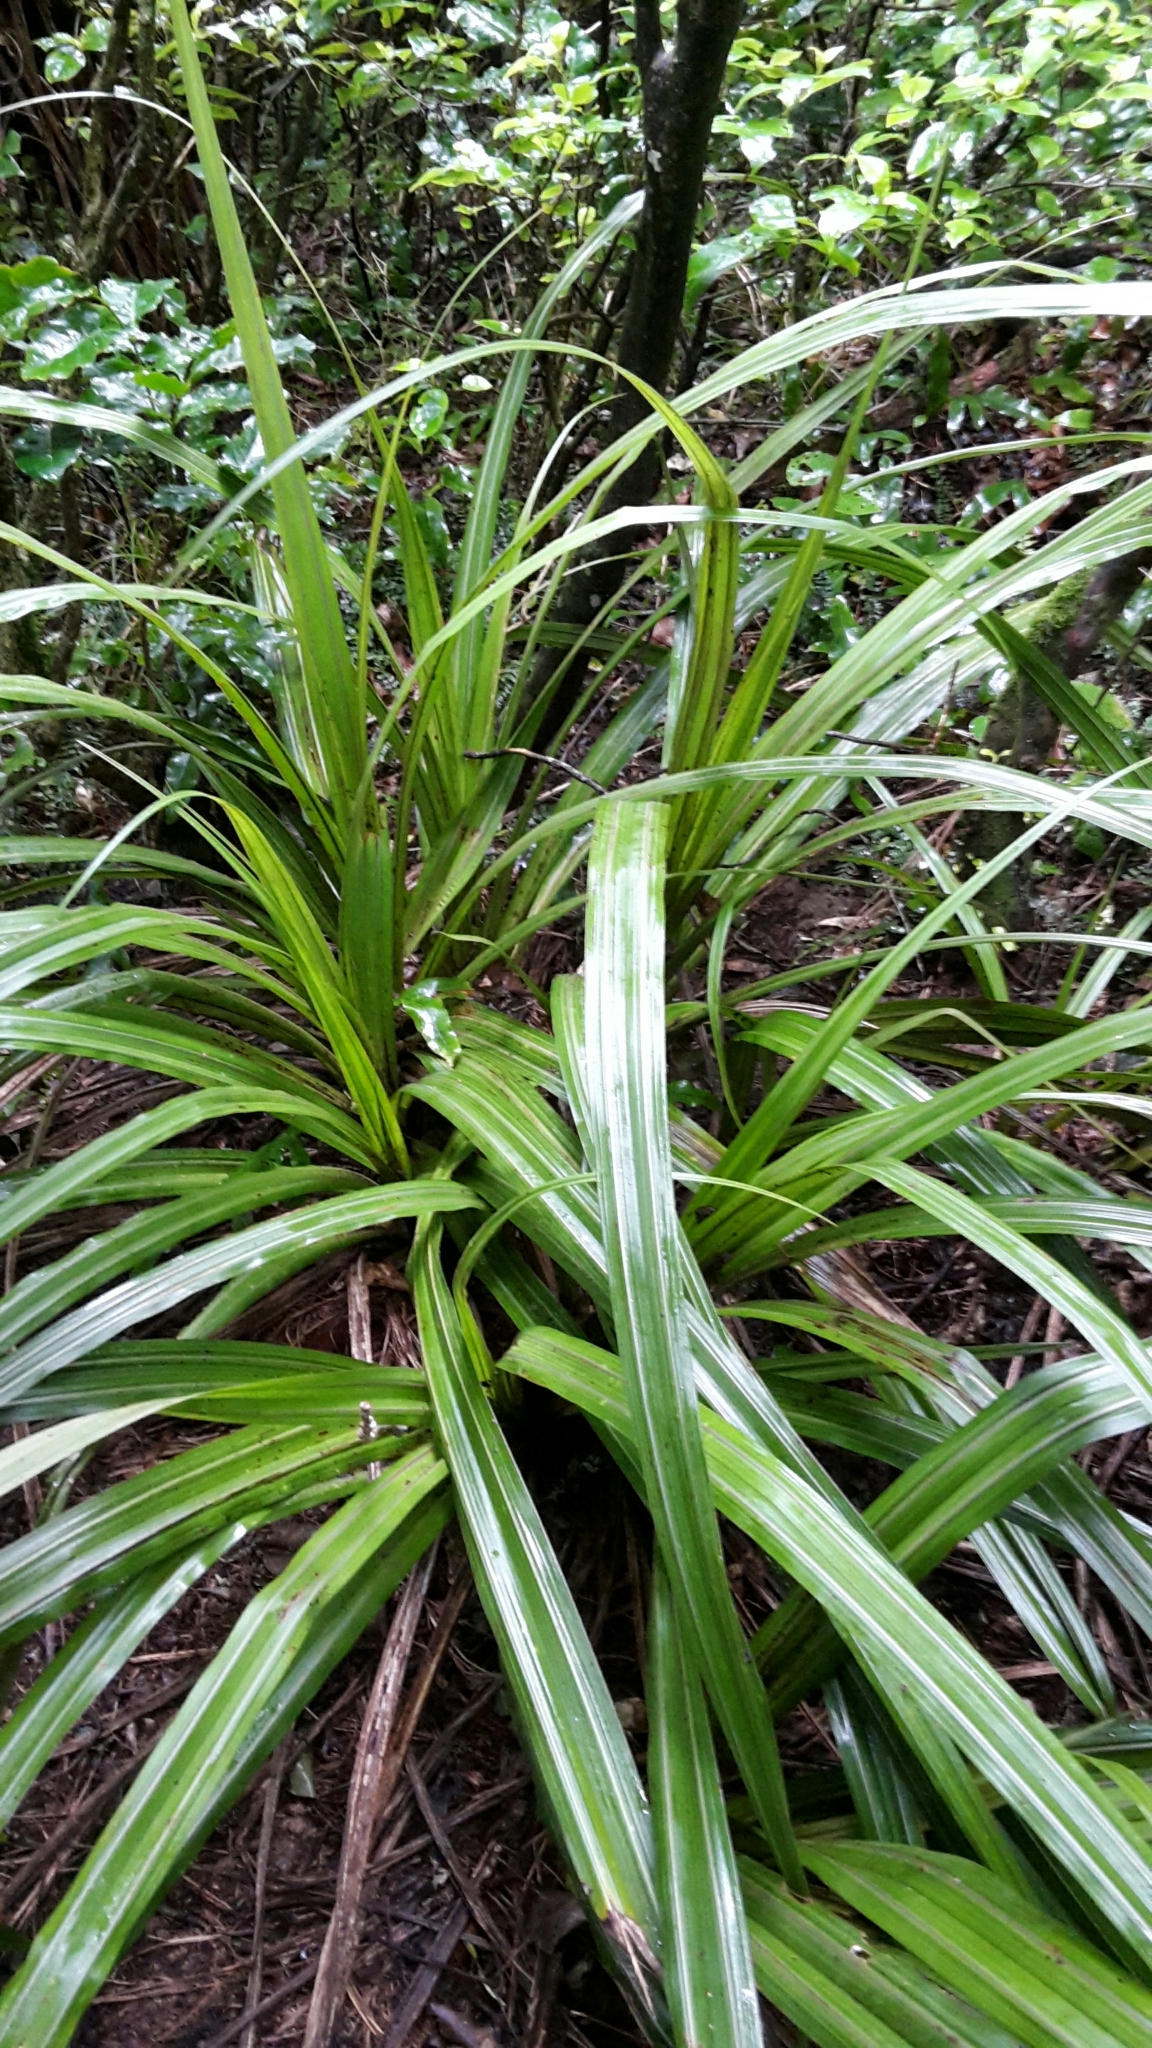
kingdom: Plantae
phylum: Tracheophyta
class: Liliopsida
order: Asparagales
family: Asteliaceae
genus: Astelia
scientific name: Astelia fragrans
